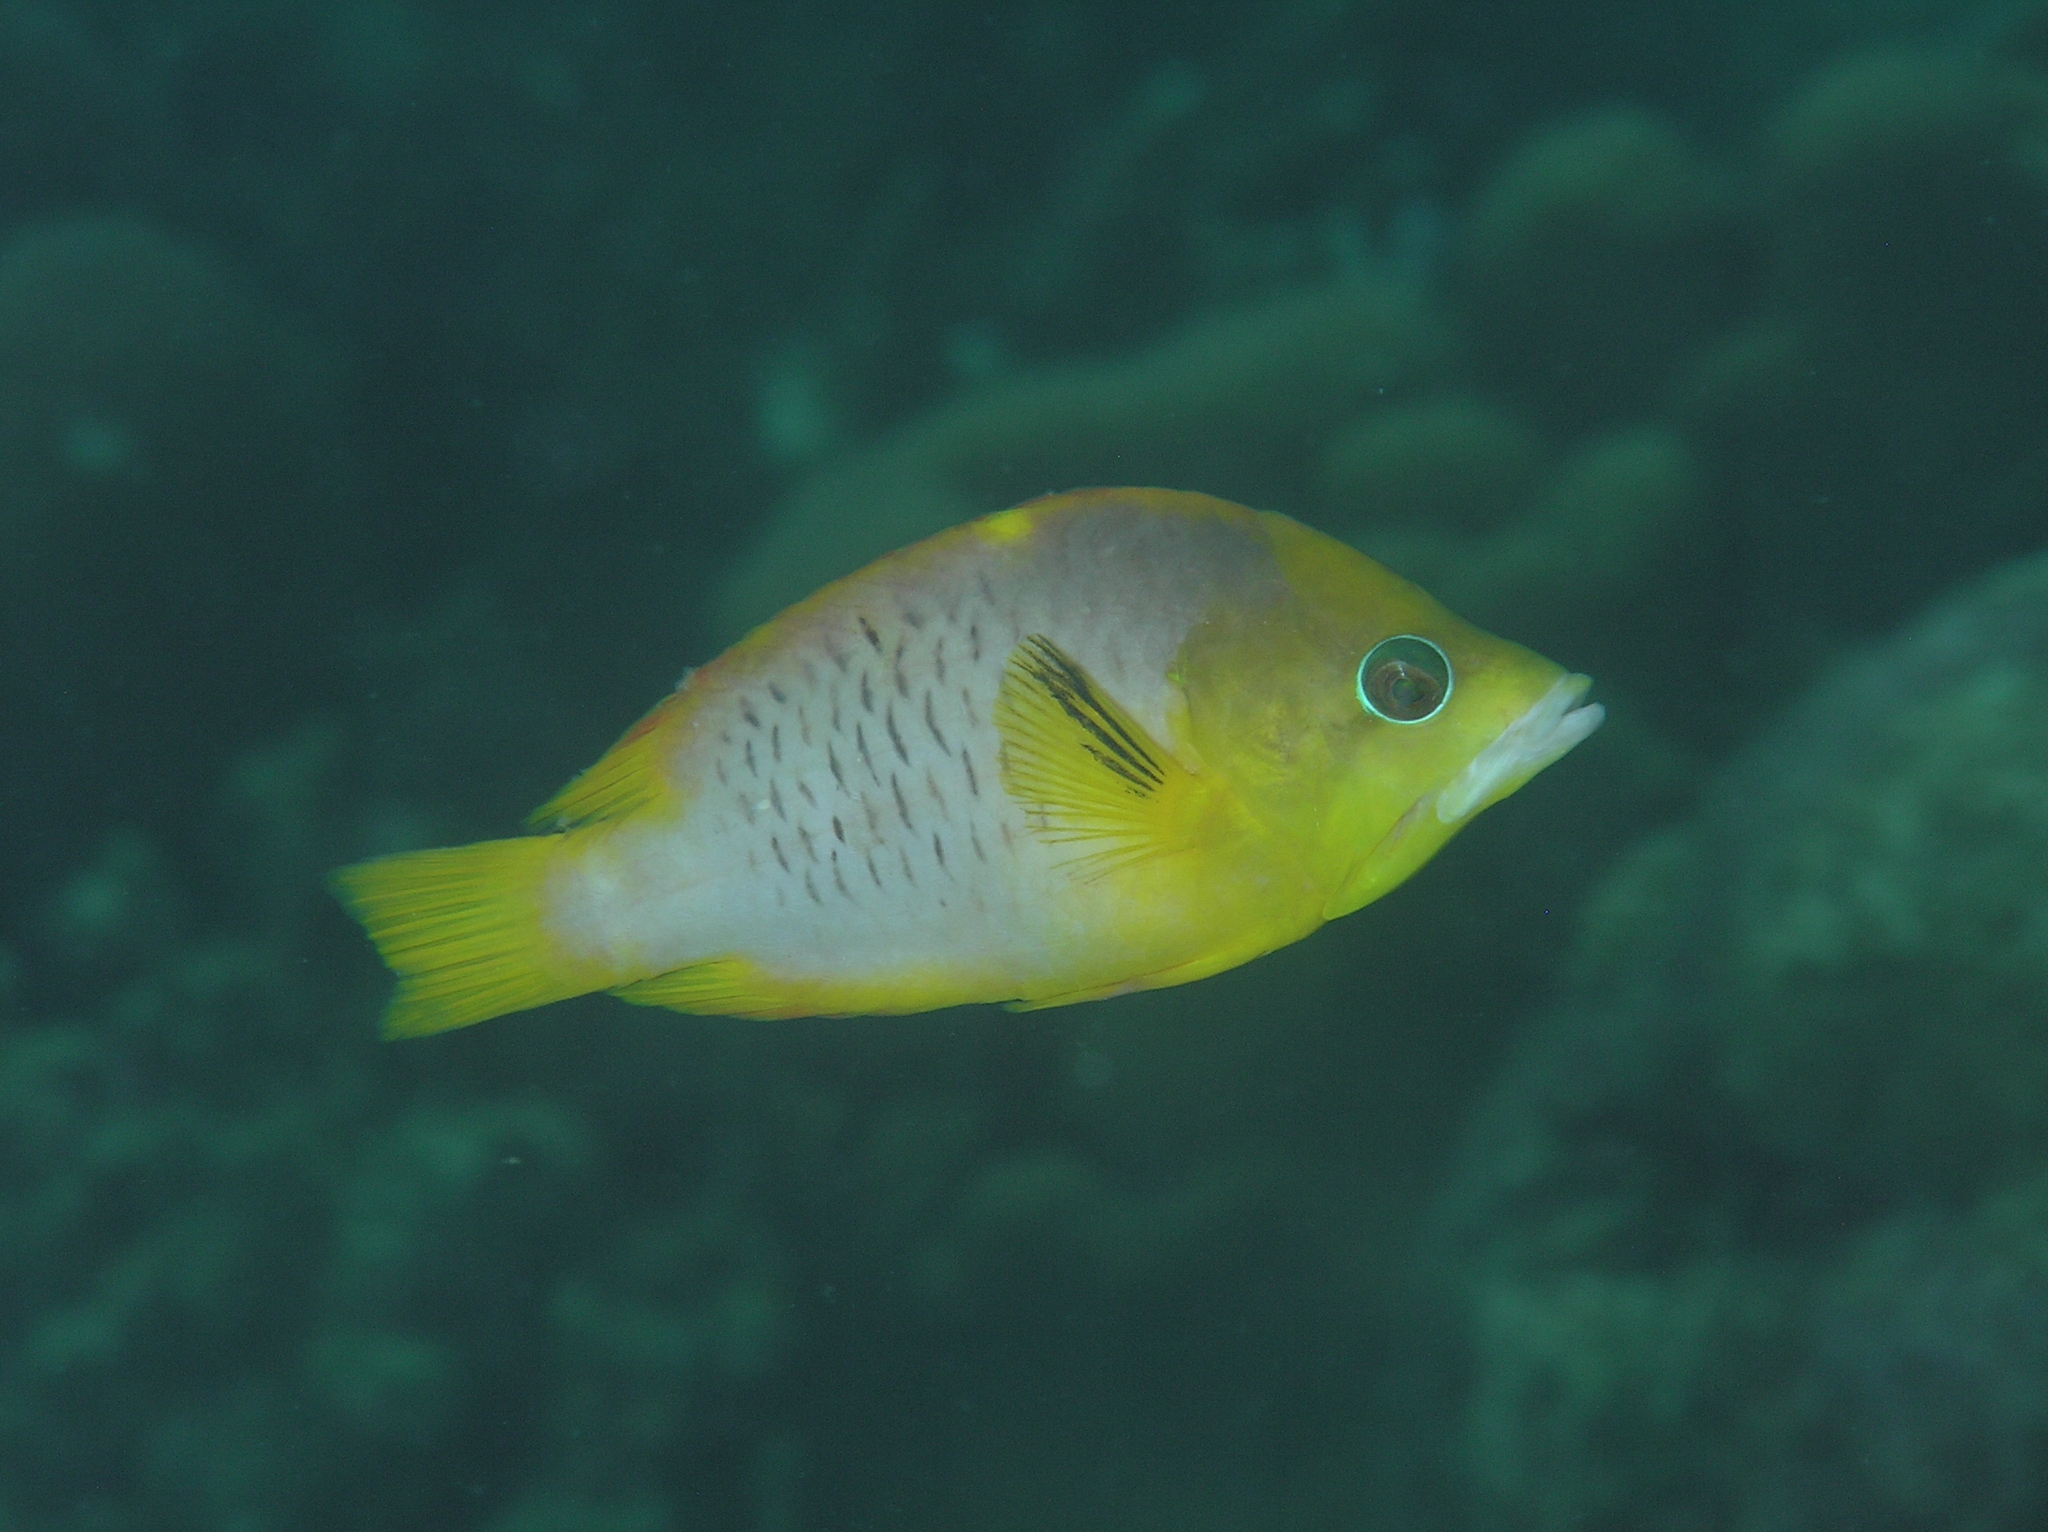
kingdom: Animalia
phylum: Chordata
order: Perciformes
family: Labridae
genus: Epibulus
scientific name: Epibulus brevis
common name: Dwarf slingjaw wrasse
